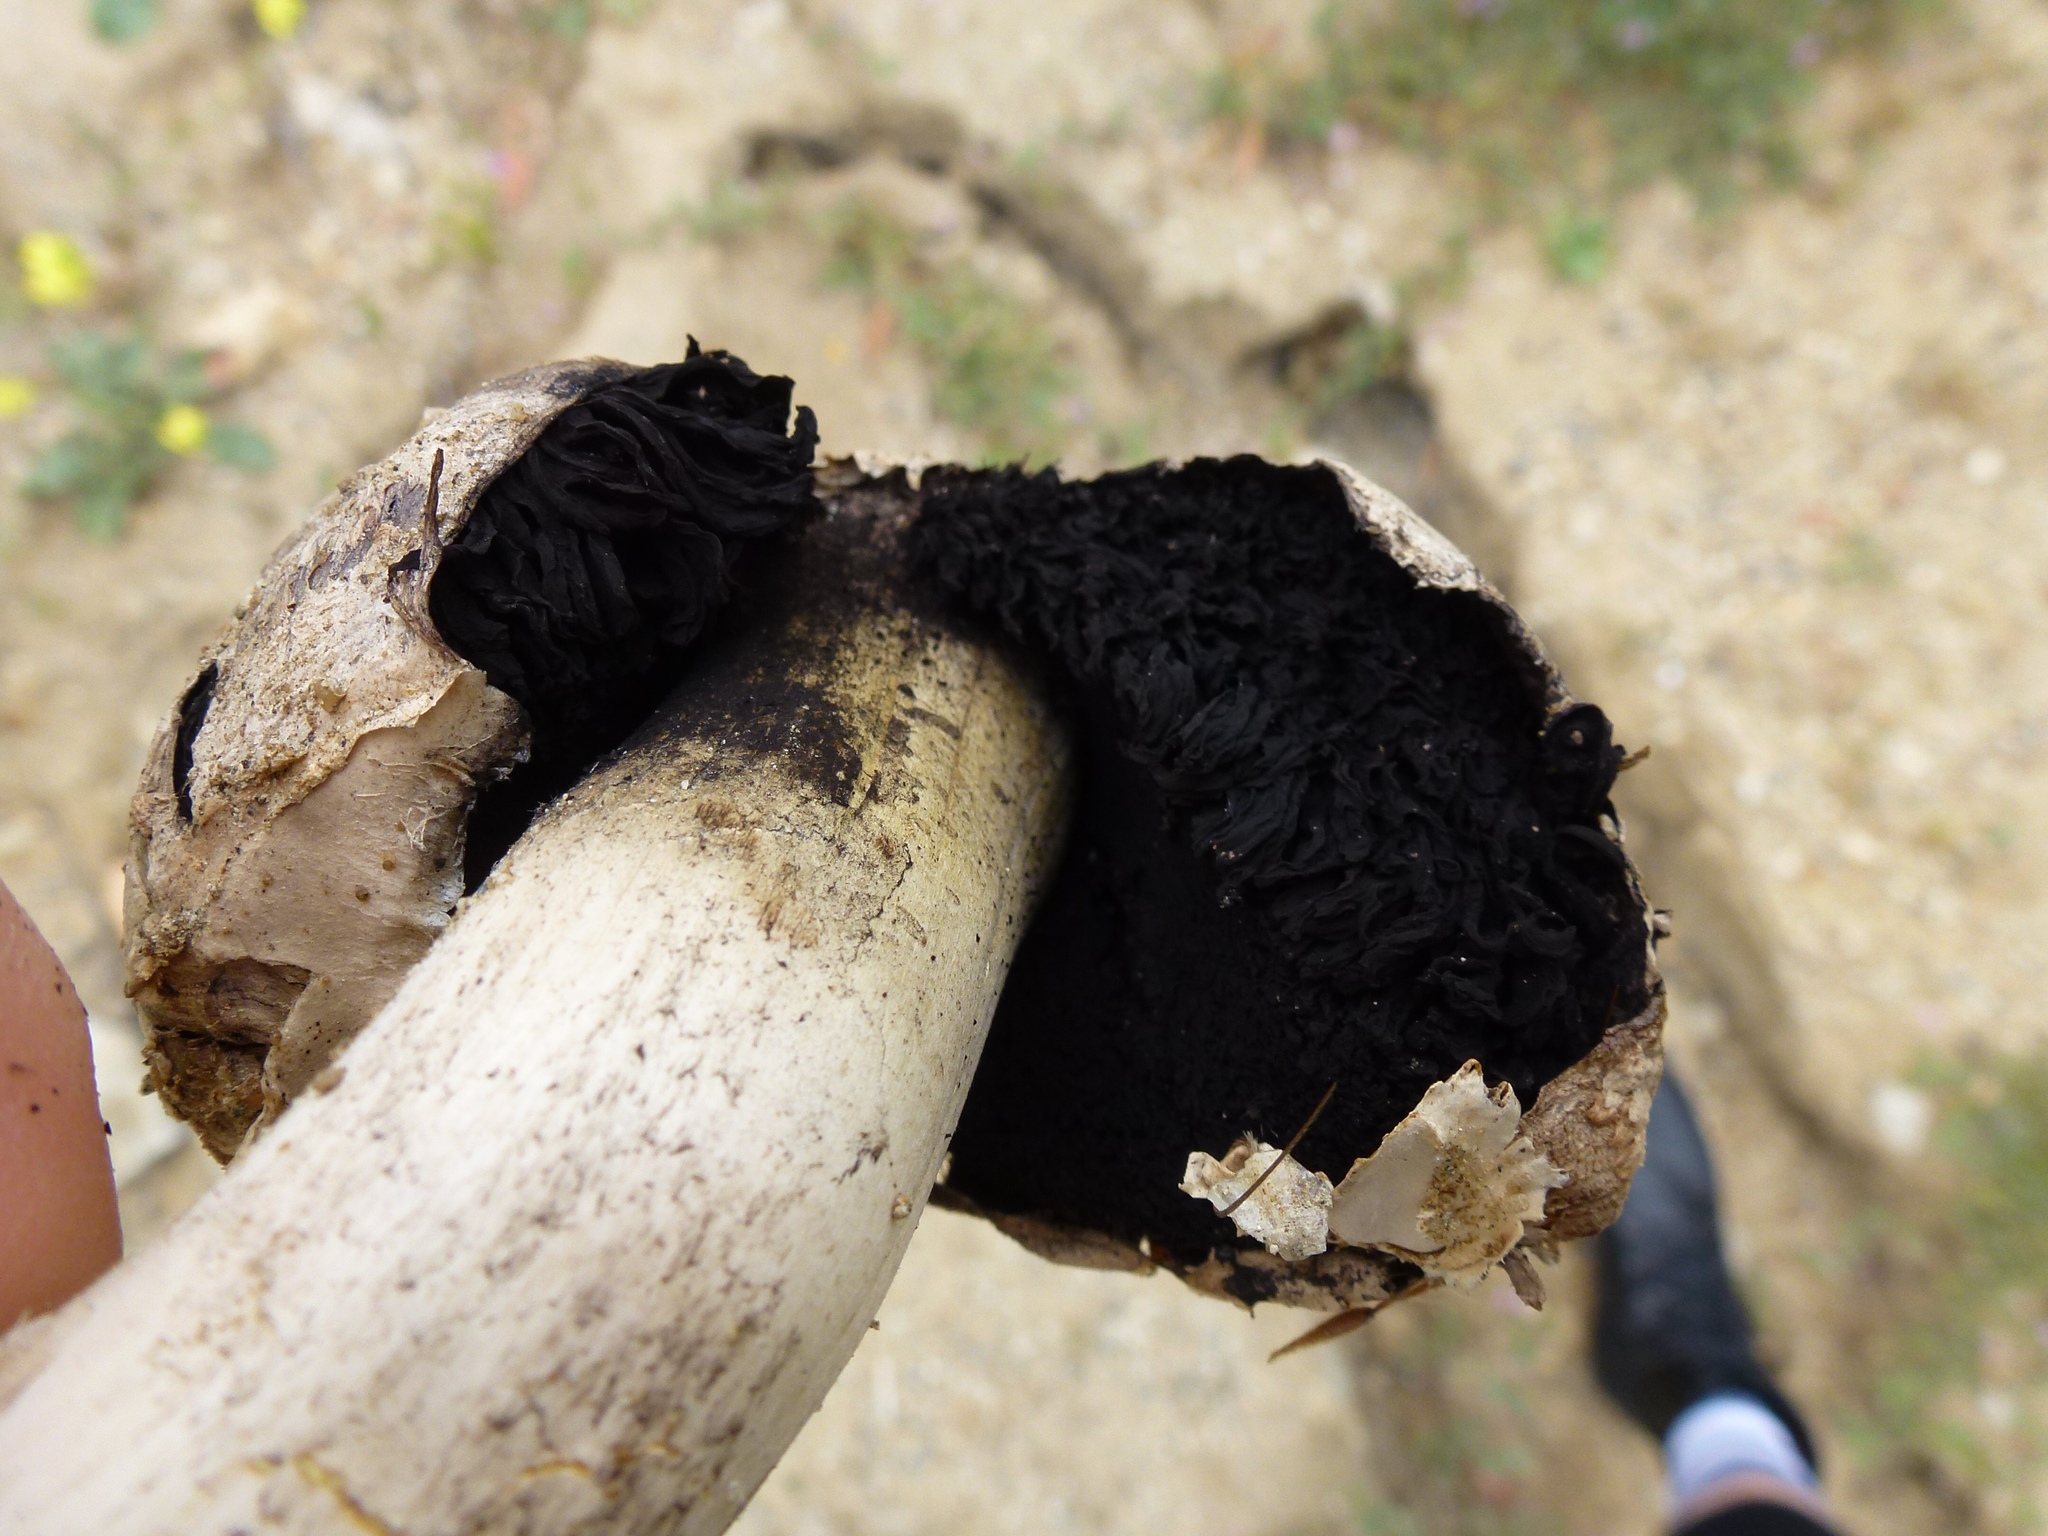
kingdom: Fungi
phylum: Basidiomycota
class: Agaricomycetes
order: Agaricales
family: Agaricaceae
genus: Agaricus
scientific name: Agaricus deserticola
